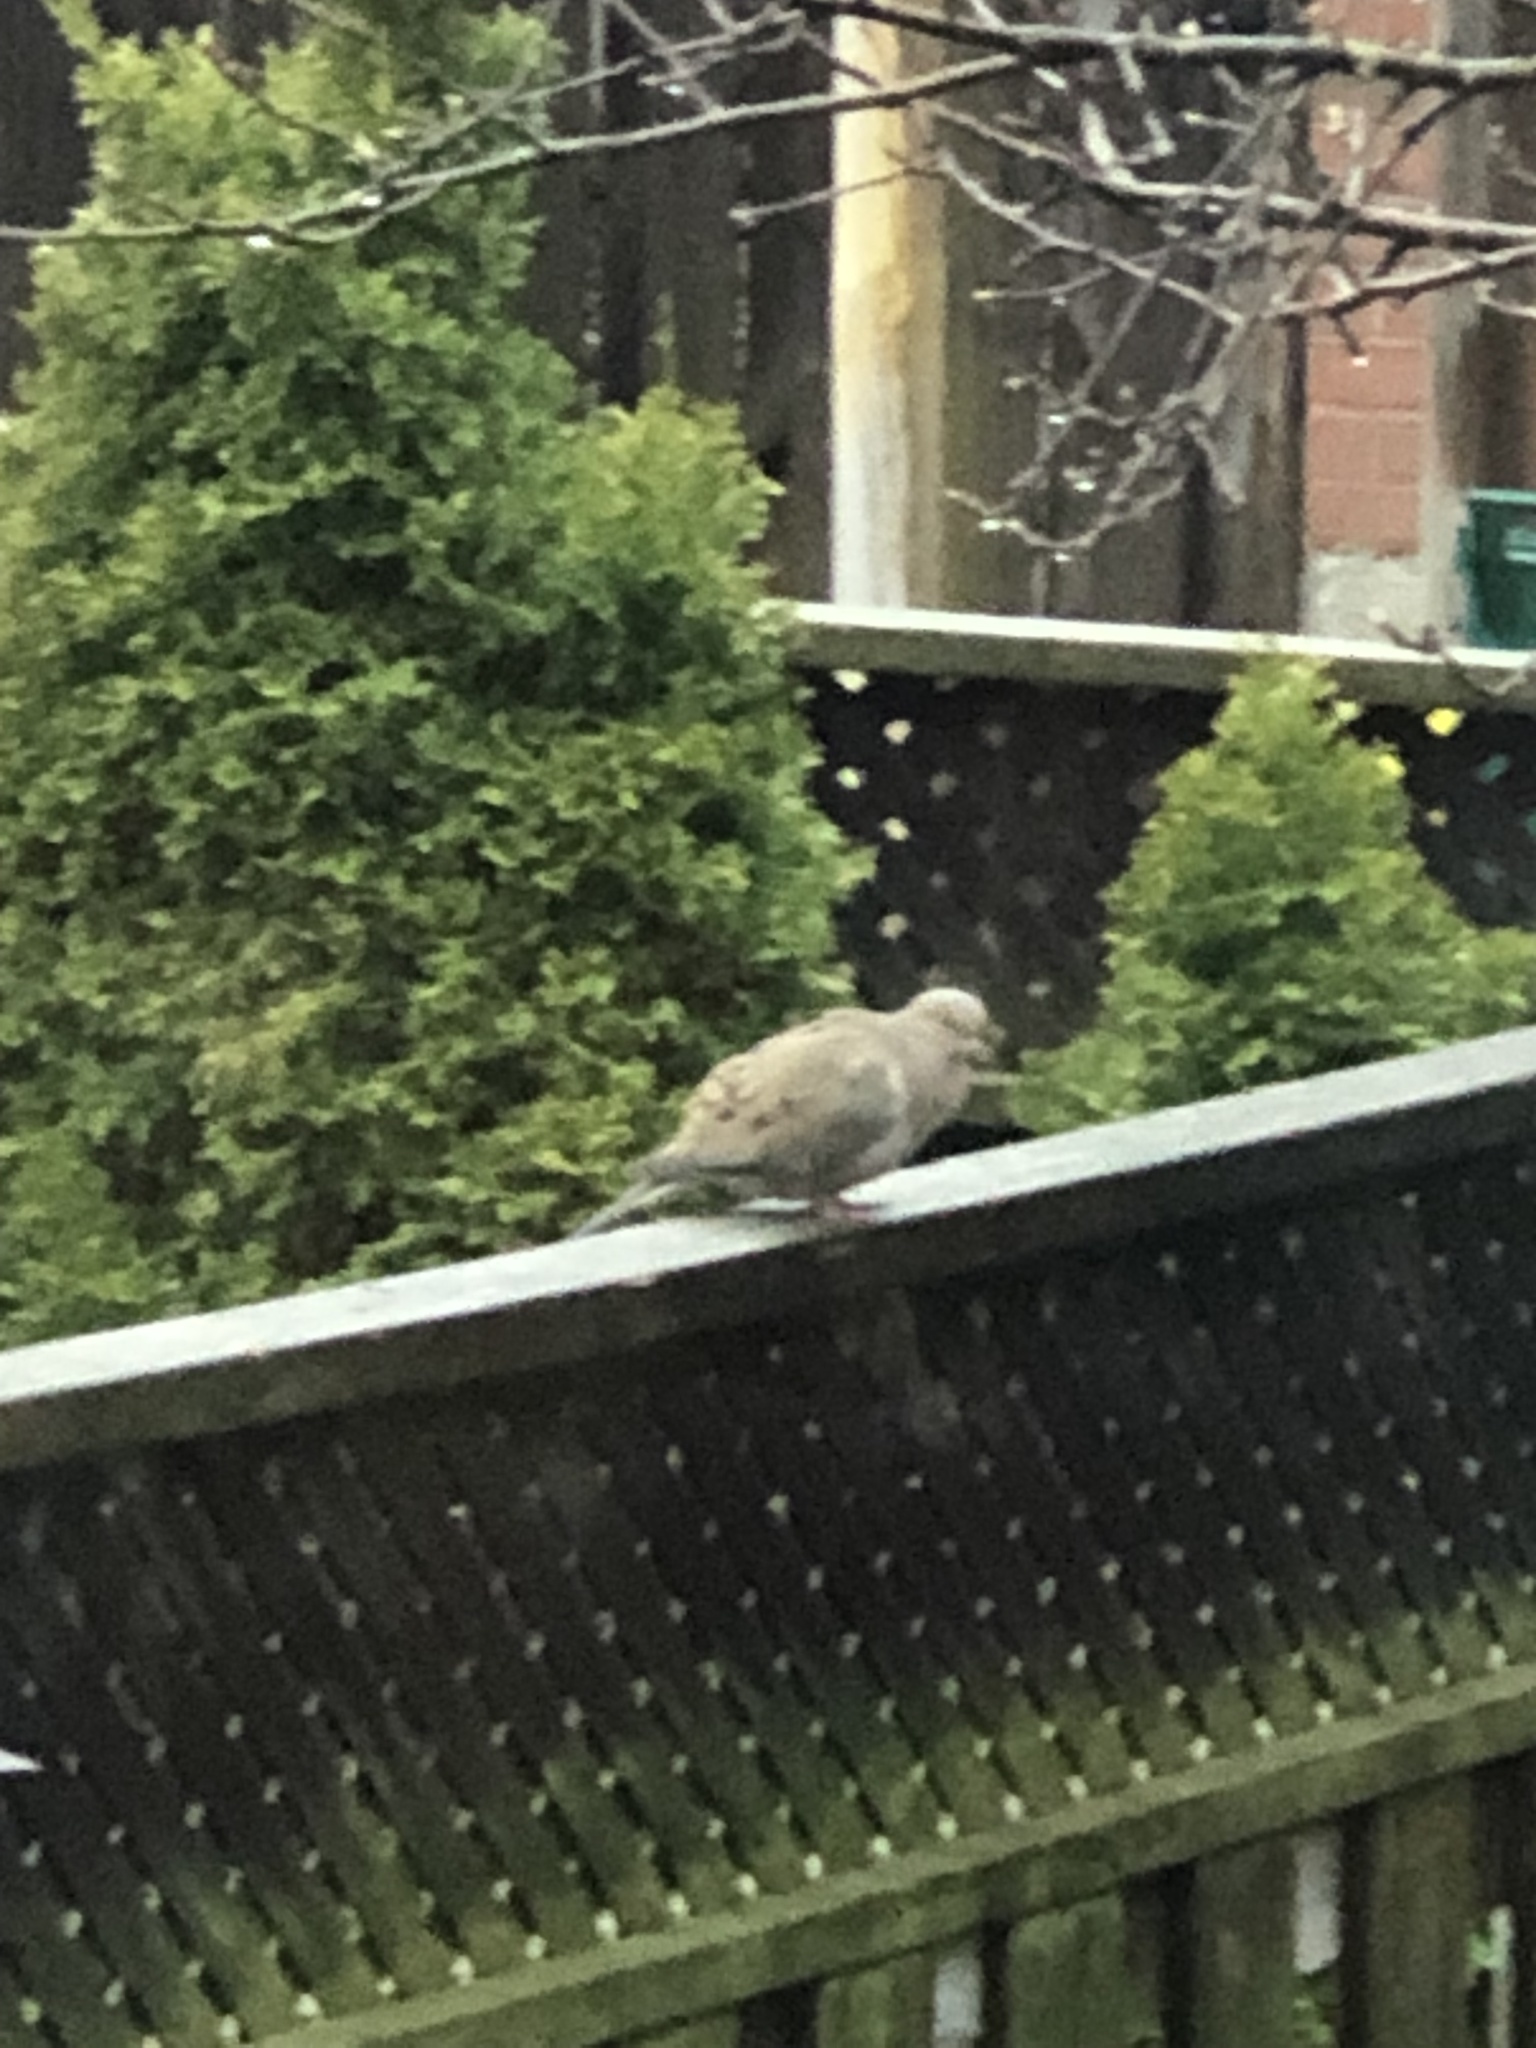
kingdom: Animalia
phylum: Chordata
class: Aves
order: Columbiformes
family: Columbidae
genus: Zenaida
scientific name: Zenaida macroura
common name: Mourning dove
